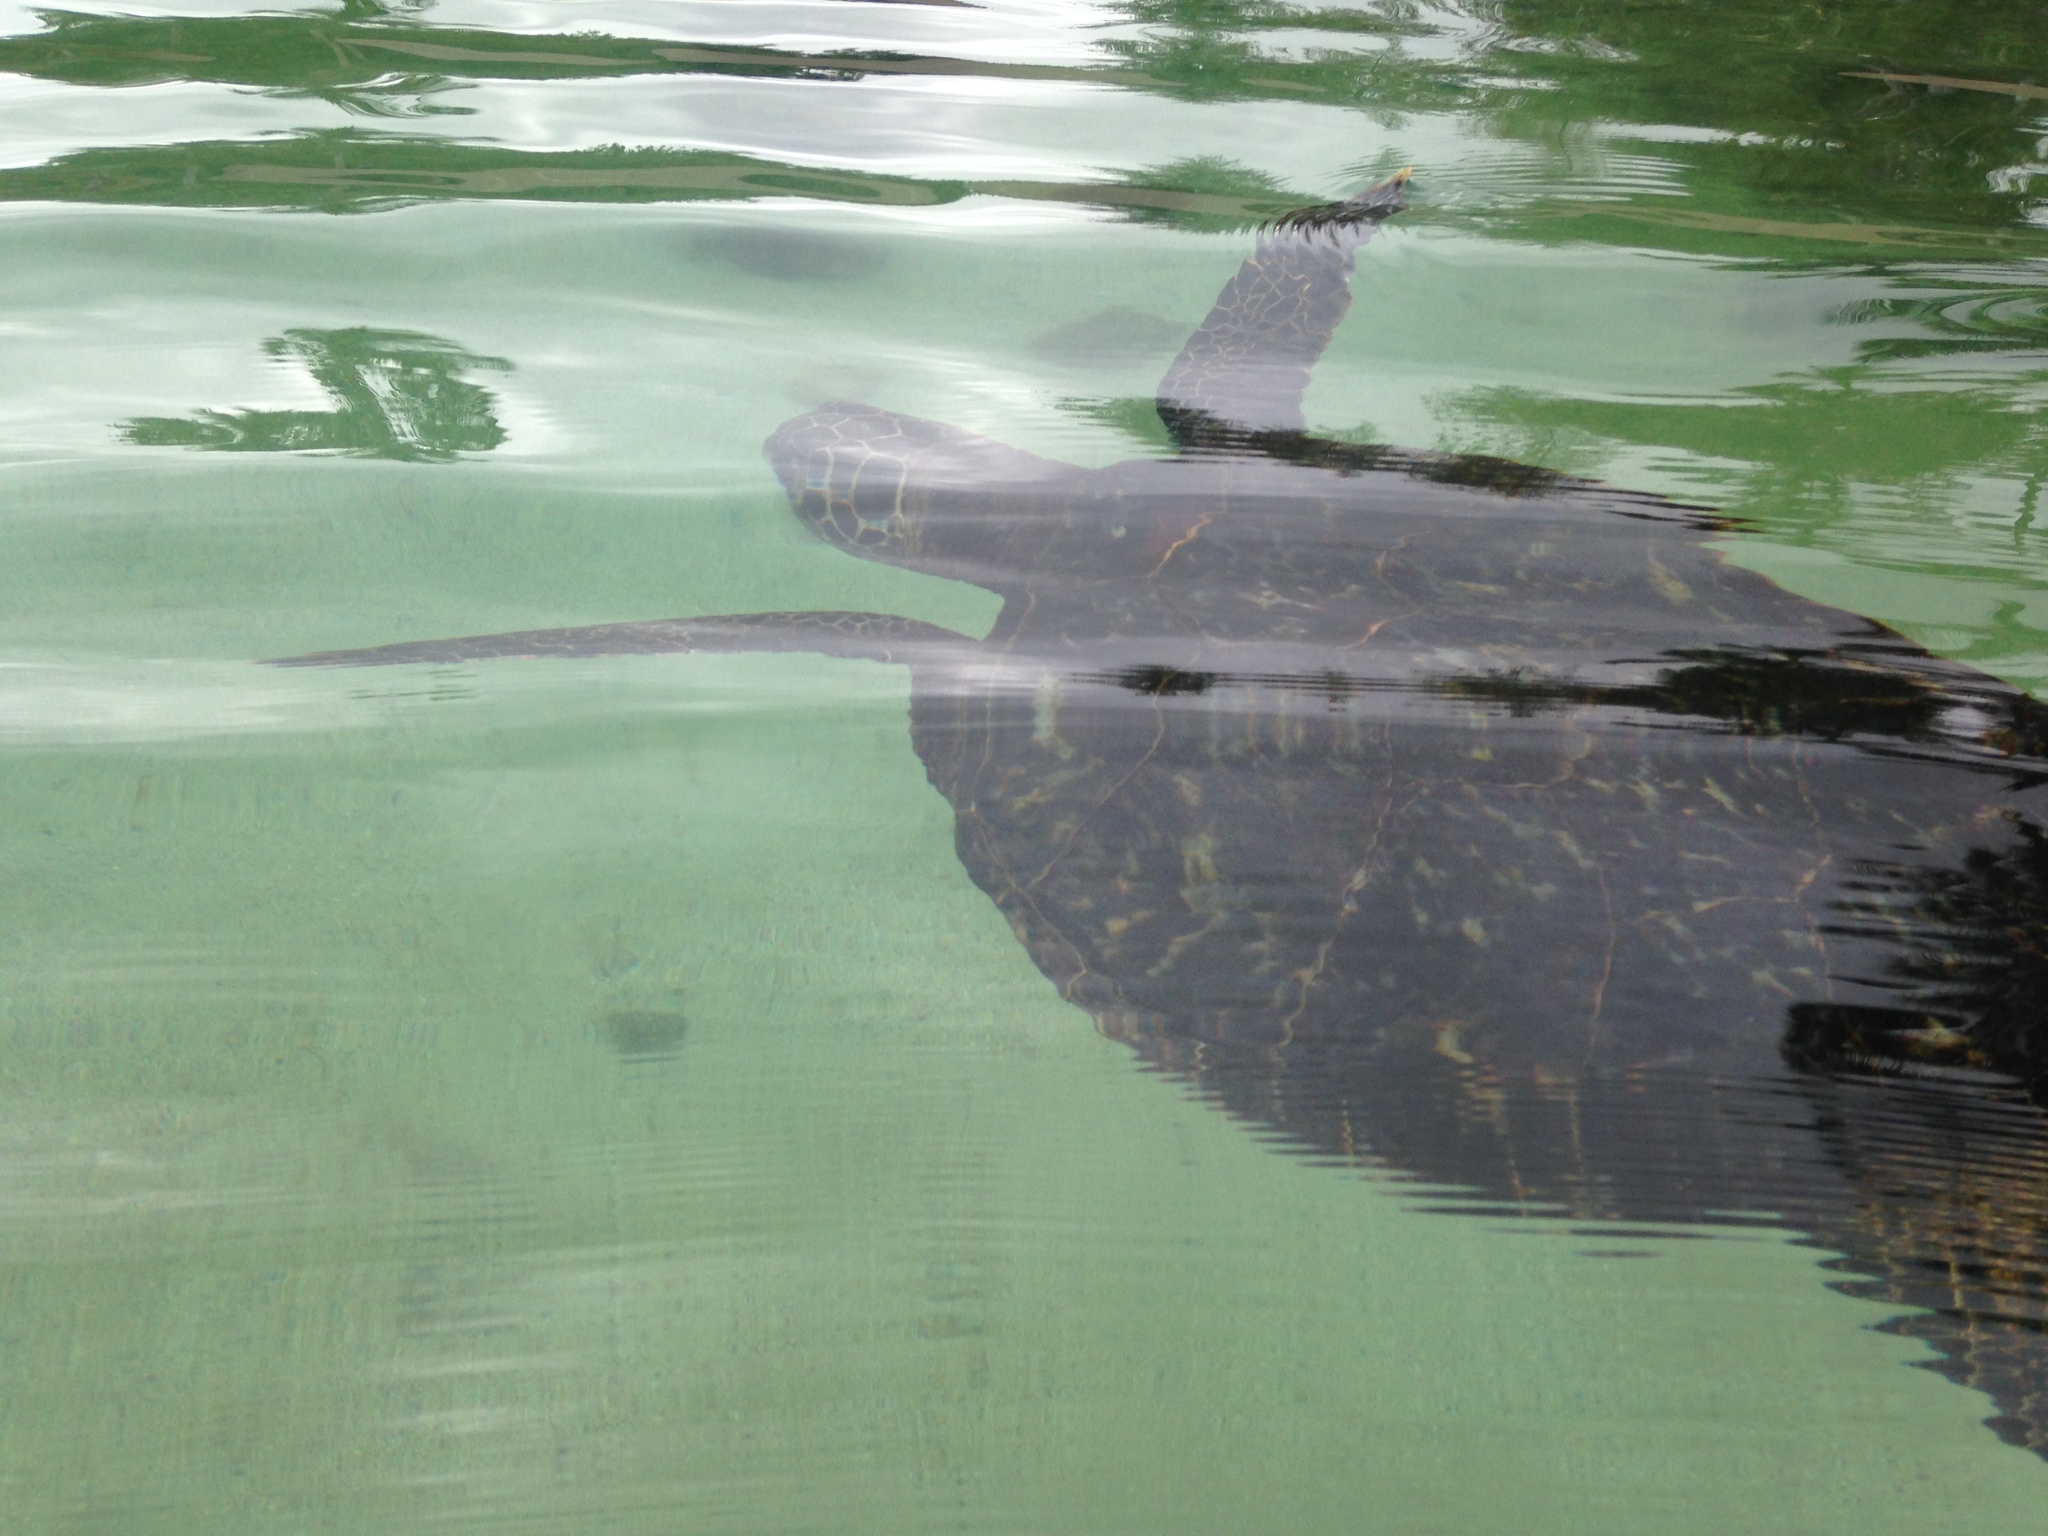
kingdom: Animalia
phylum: Chordata
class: Testudines
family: Cheloniidae
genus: Eretmochelys
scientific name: Eretmochelys imbricata
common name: Hawksbill turtle
